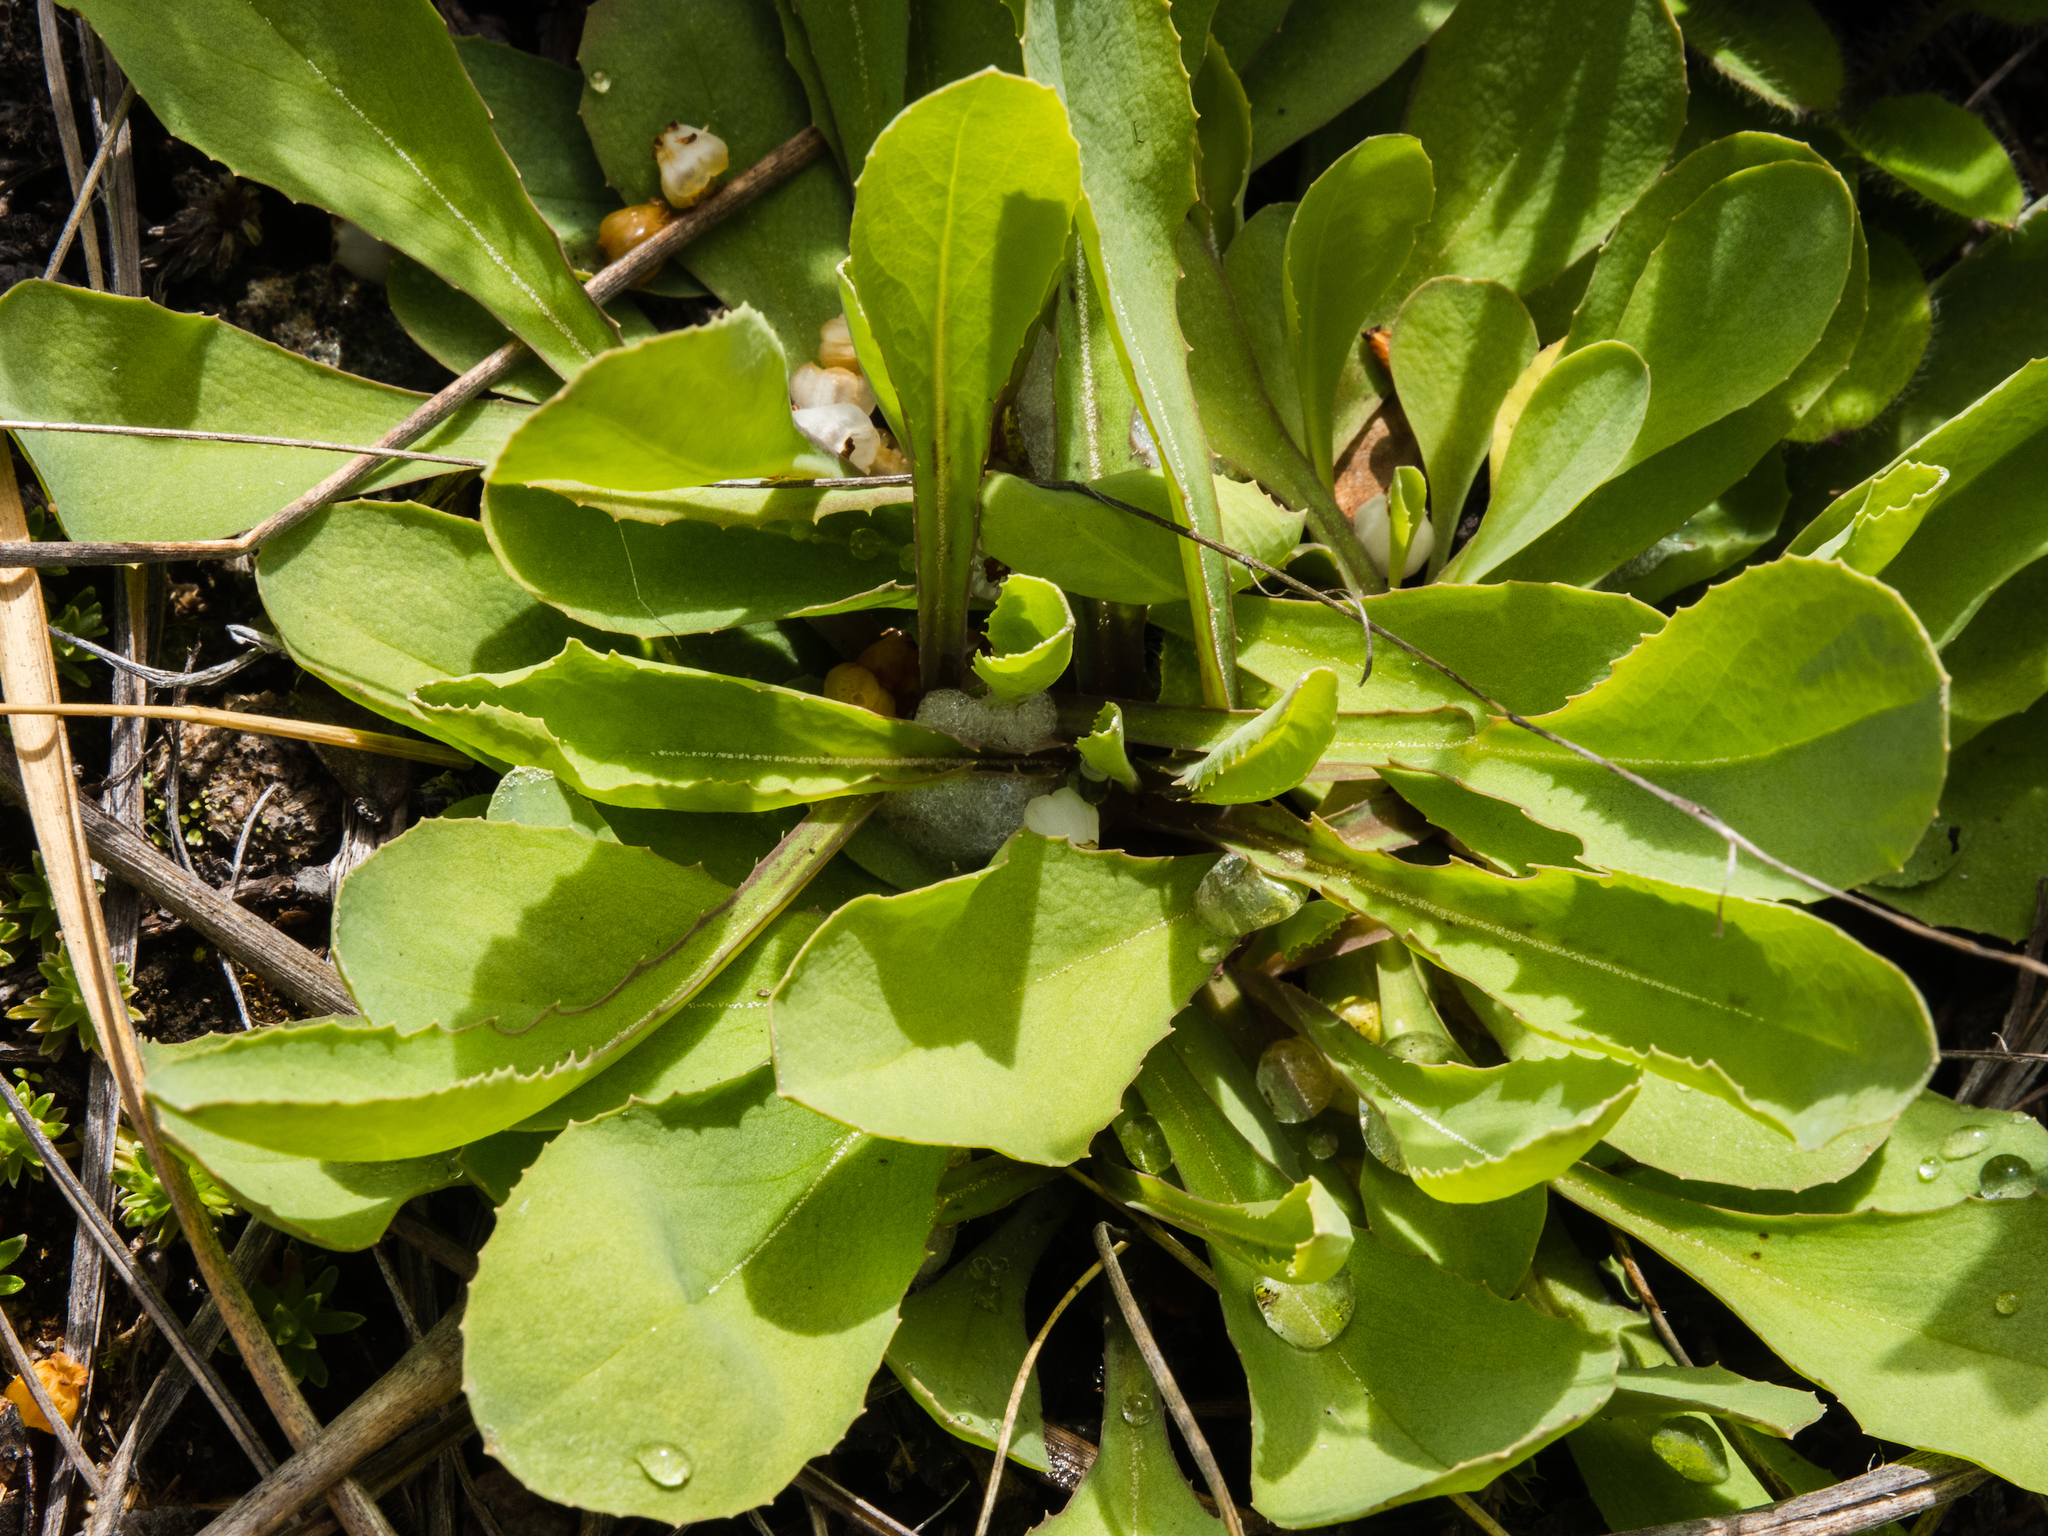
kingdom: Plantae
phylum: Tracheophyta
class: Magnoliopsida
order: Asterales
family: Asteraceae
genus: Sonchus
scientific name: Sonchus novae-zelandiae
